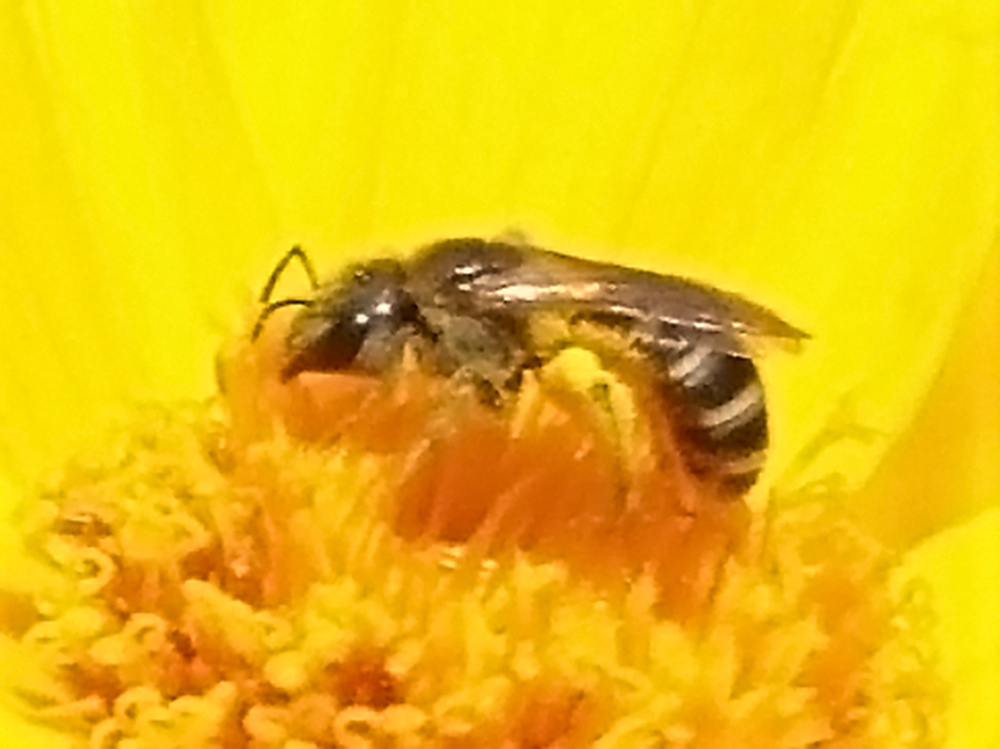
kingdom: Animalia
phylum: Arthropoda
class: Insecta
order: Hymenoptera
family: Halictidae
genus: Halictus
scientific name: Halictus ligatus
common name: Ligated furrow bee
